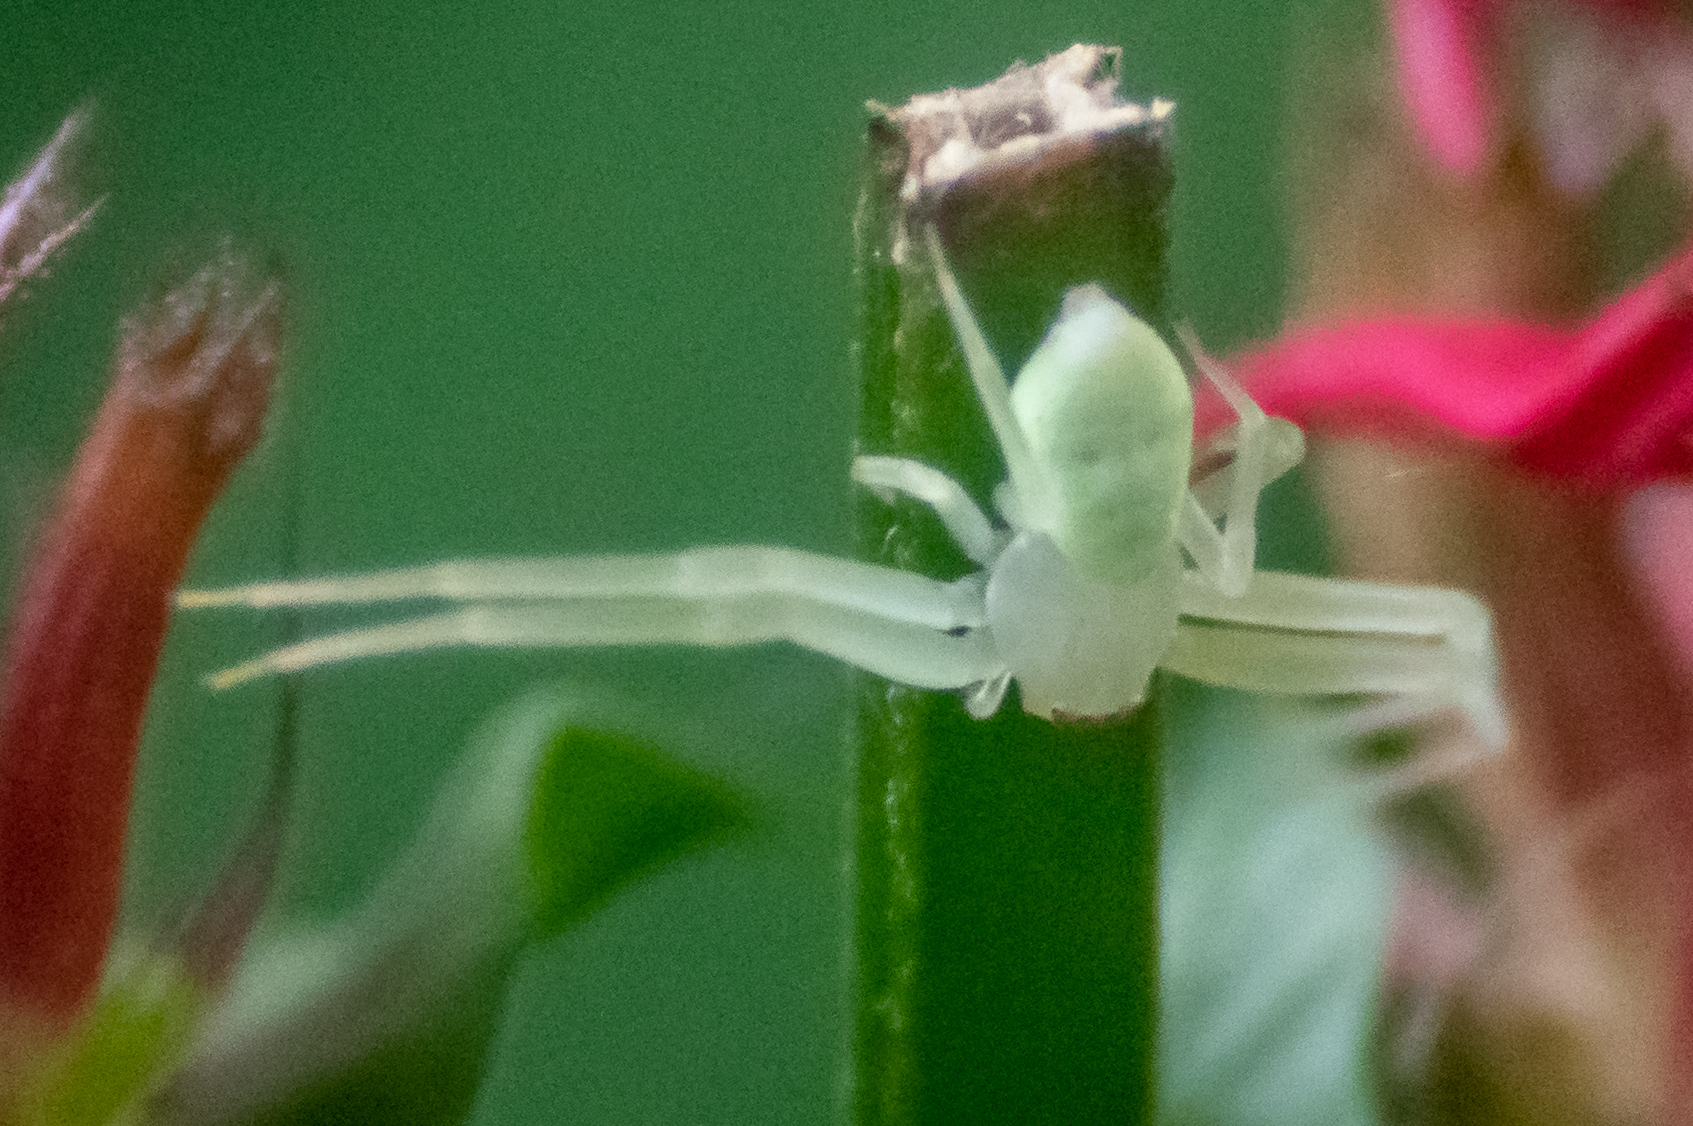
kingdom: Animalia
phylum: Arthropoda
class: Arachnida
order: Araneae
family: Thomisidae
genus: Misumessus
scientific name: Misumessus oblongus
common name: American green crab spider
